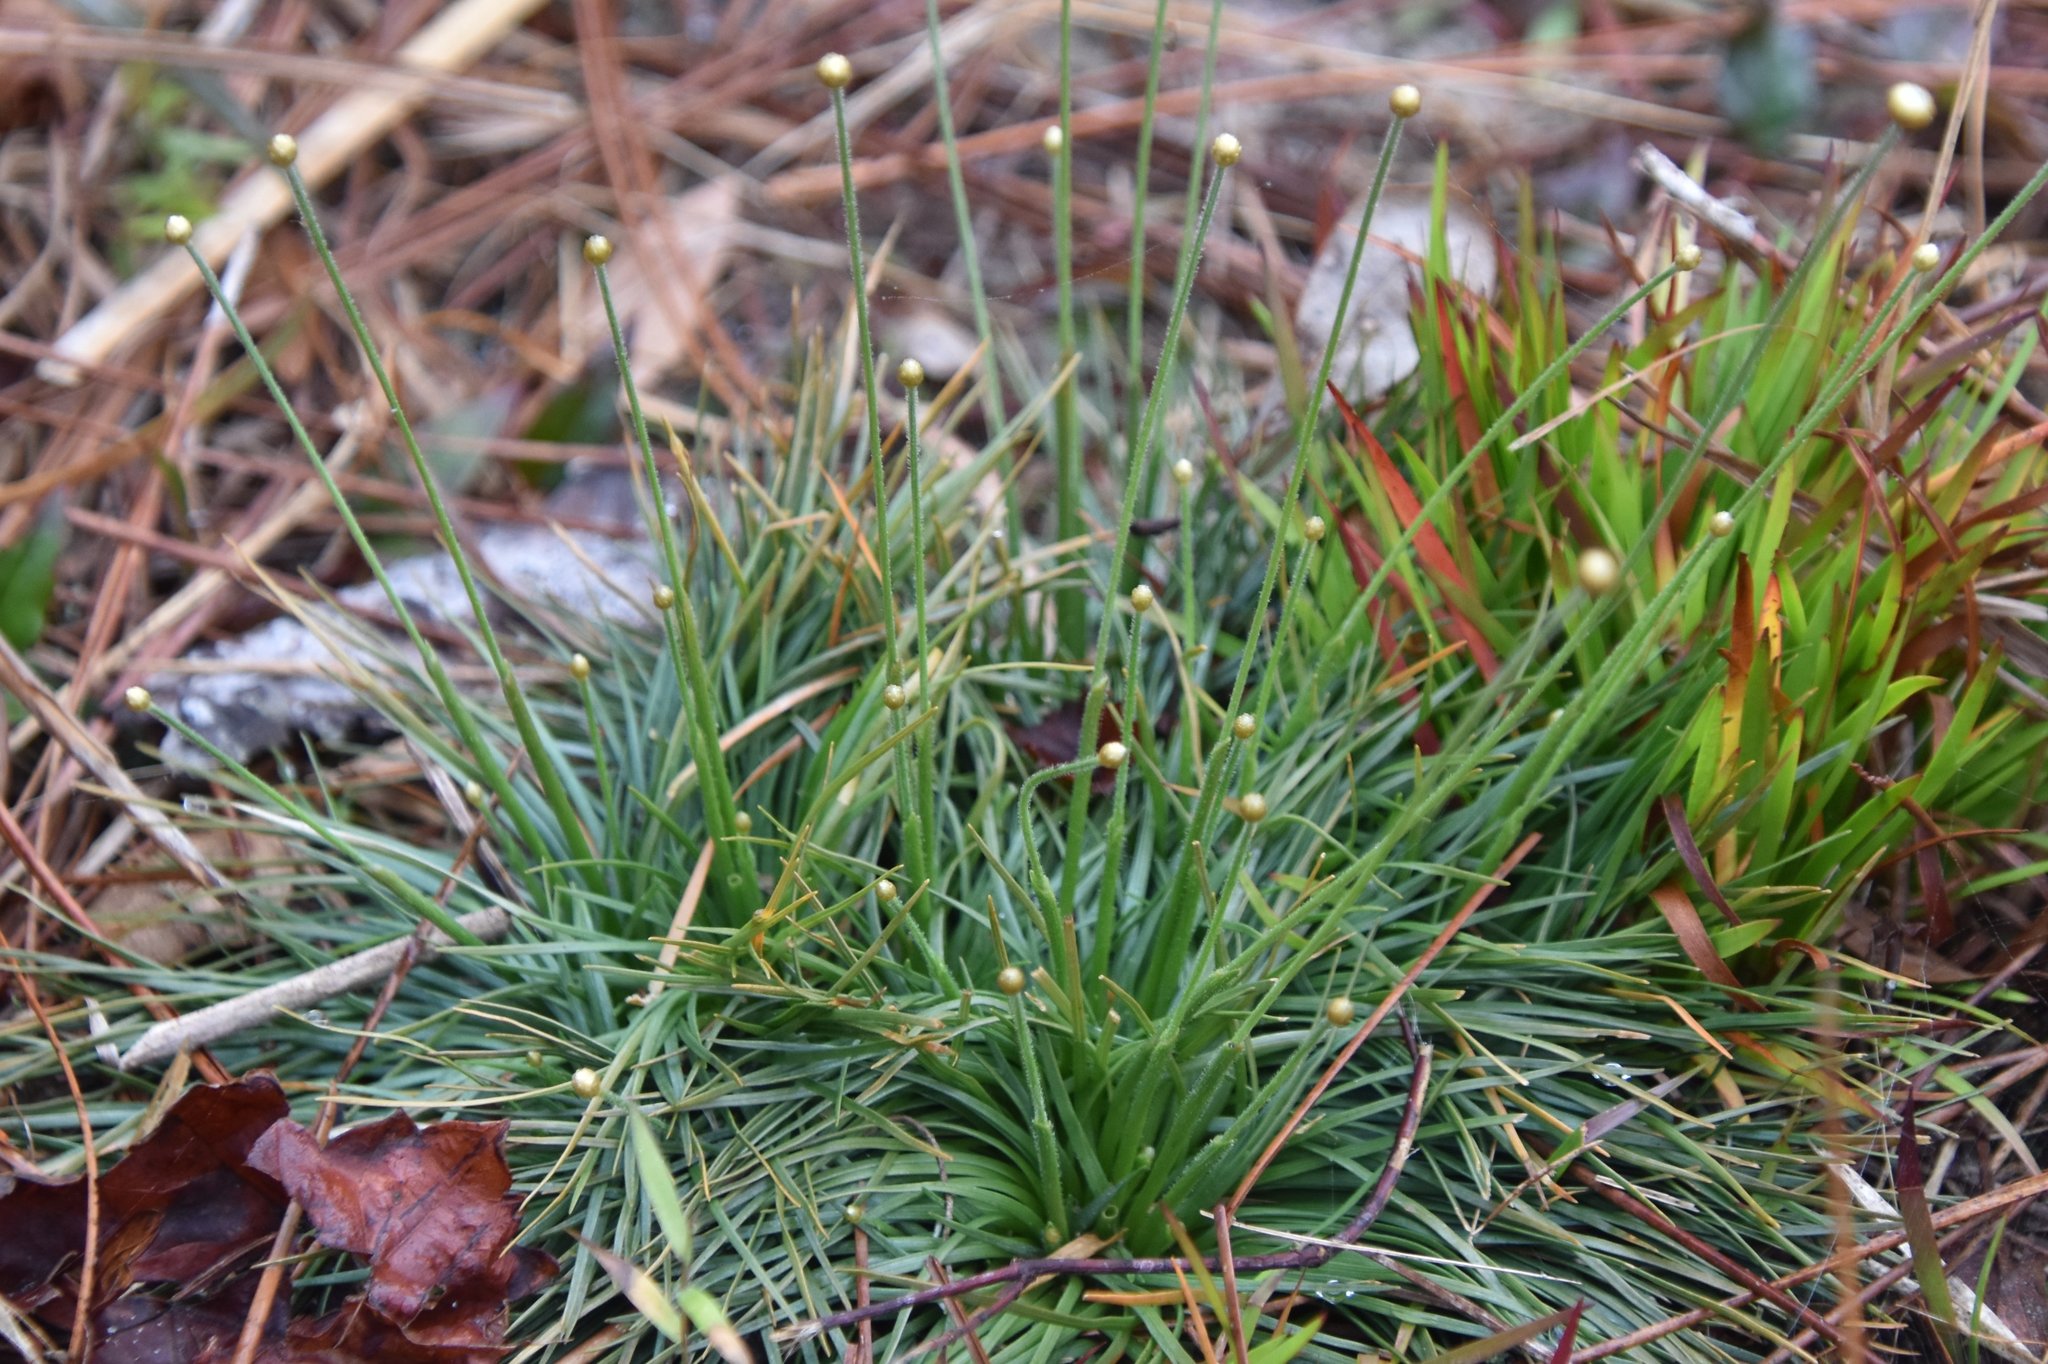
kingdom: Plantae
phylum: Tracheophyta
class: Liliopsida
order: Poales
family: Eriocaulaceae
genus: Syngonanthus
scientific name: Syngonanthus flavidulus
